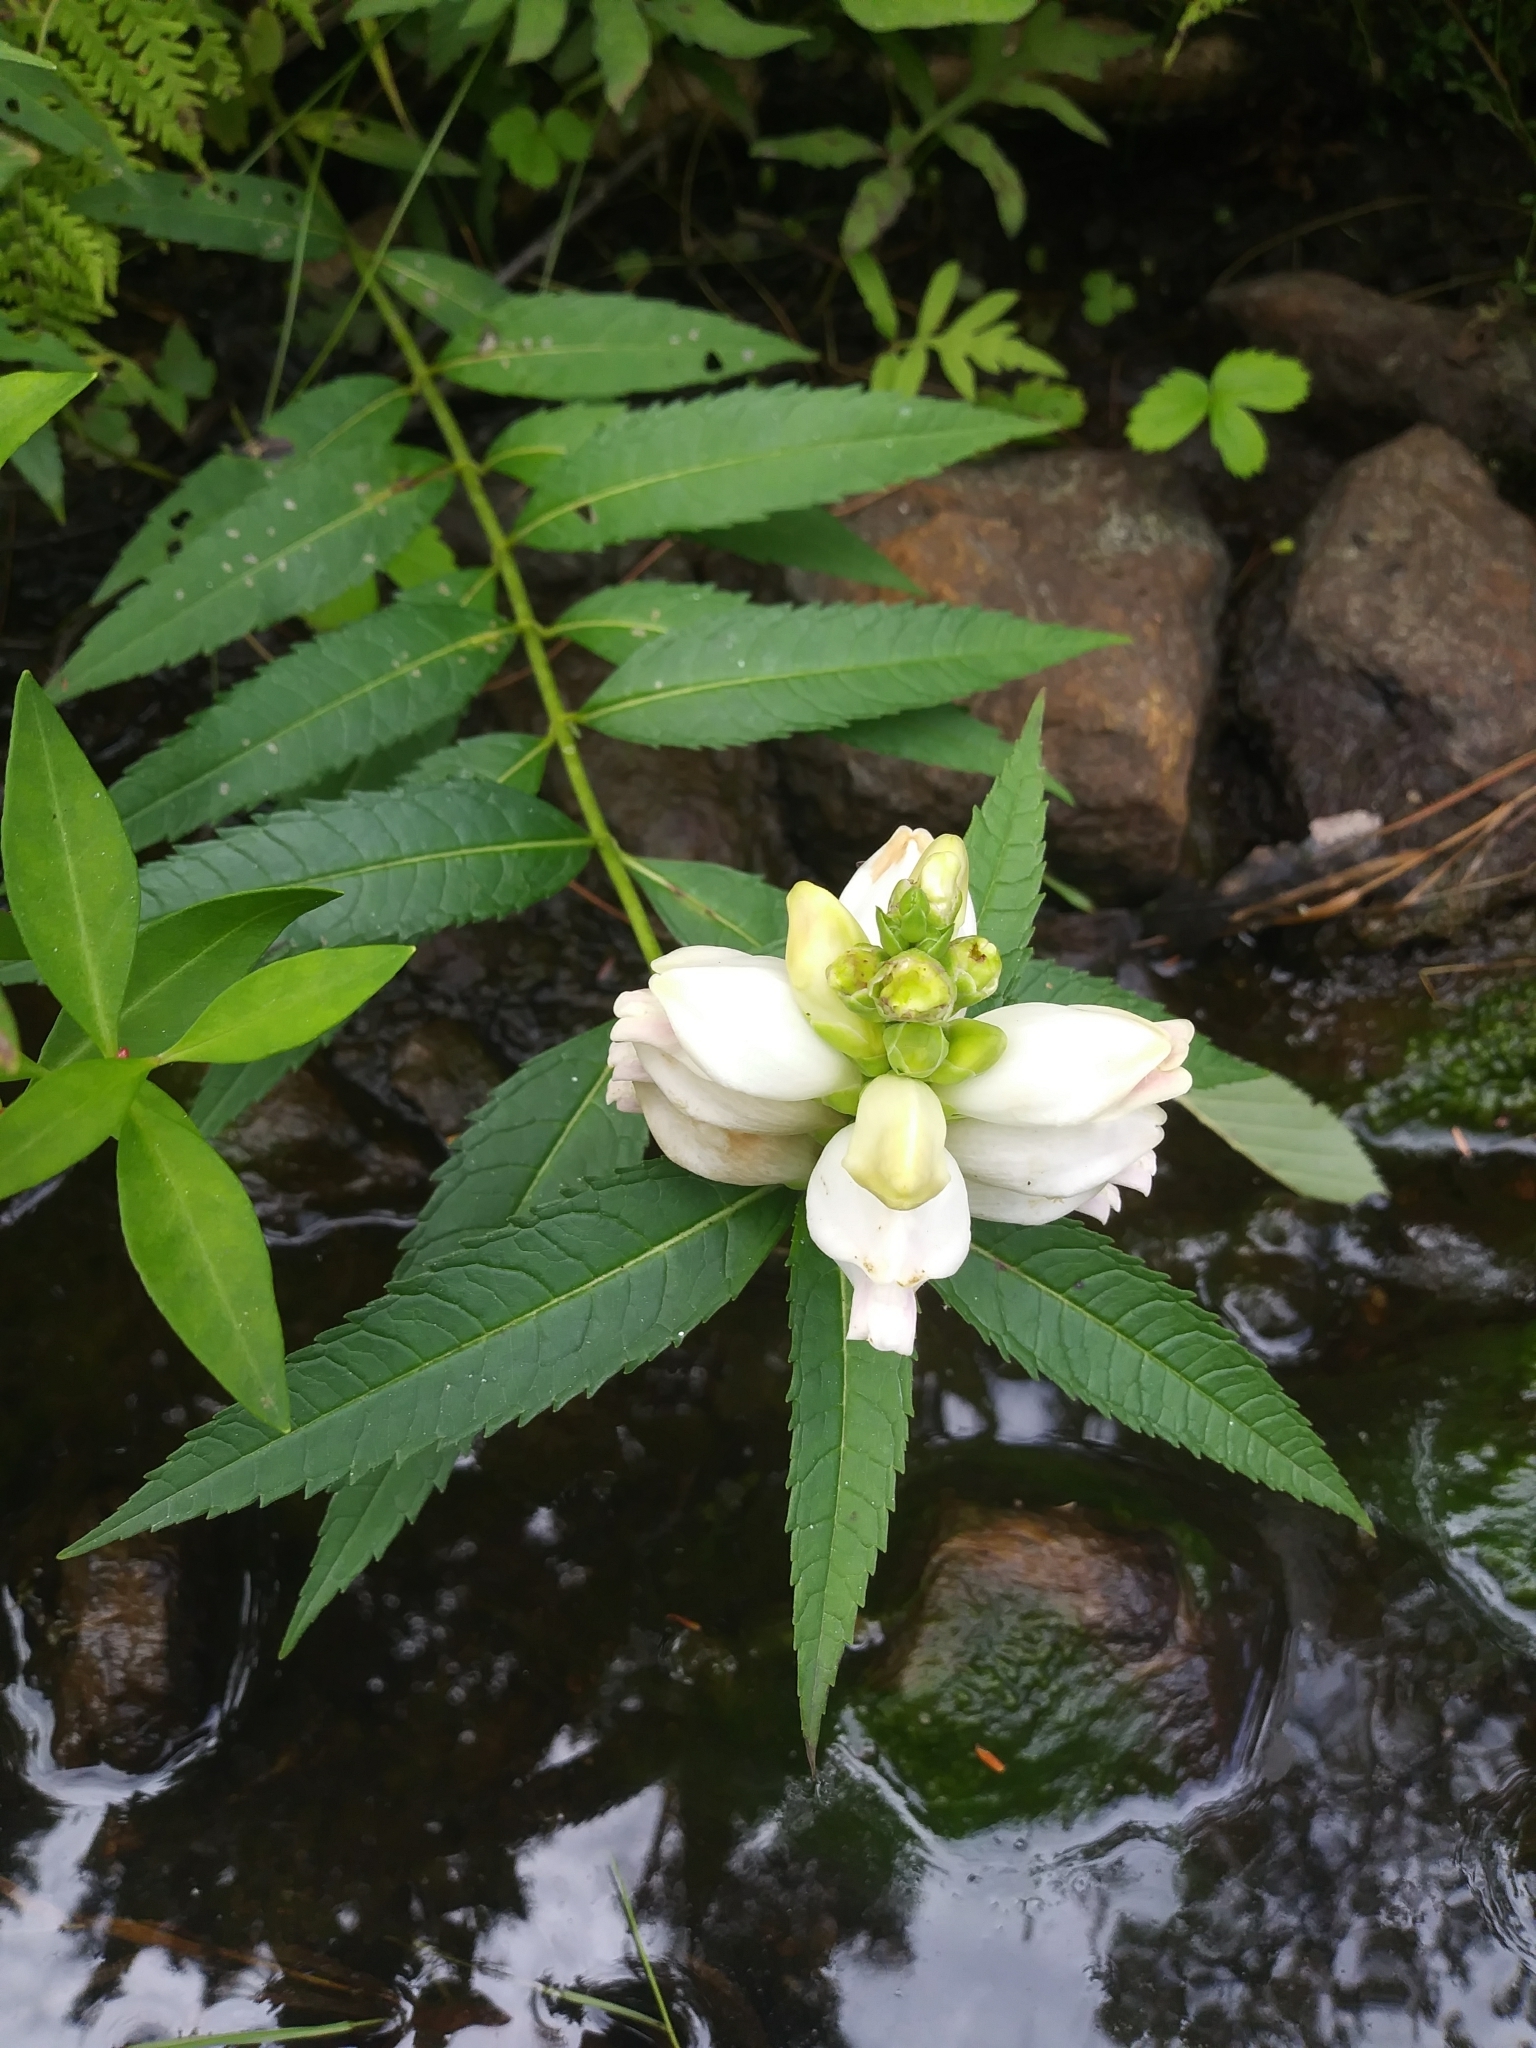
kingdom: Plantae
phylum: Tracheophyta
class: Magnoliopsida
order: Lamiales
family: Plantaginaceae
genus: Chelone
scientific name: Chelone glabra
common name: Snakehead
